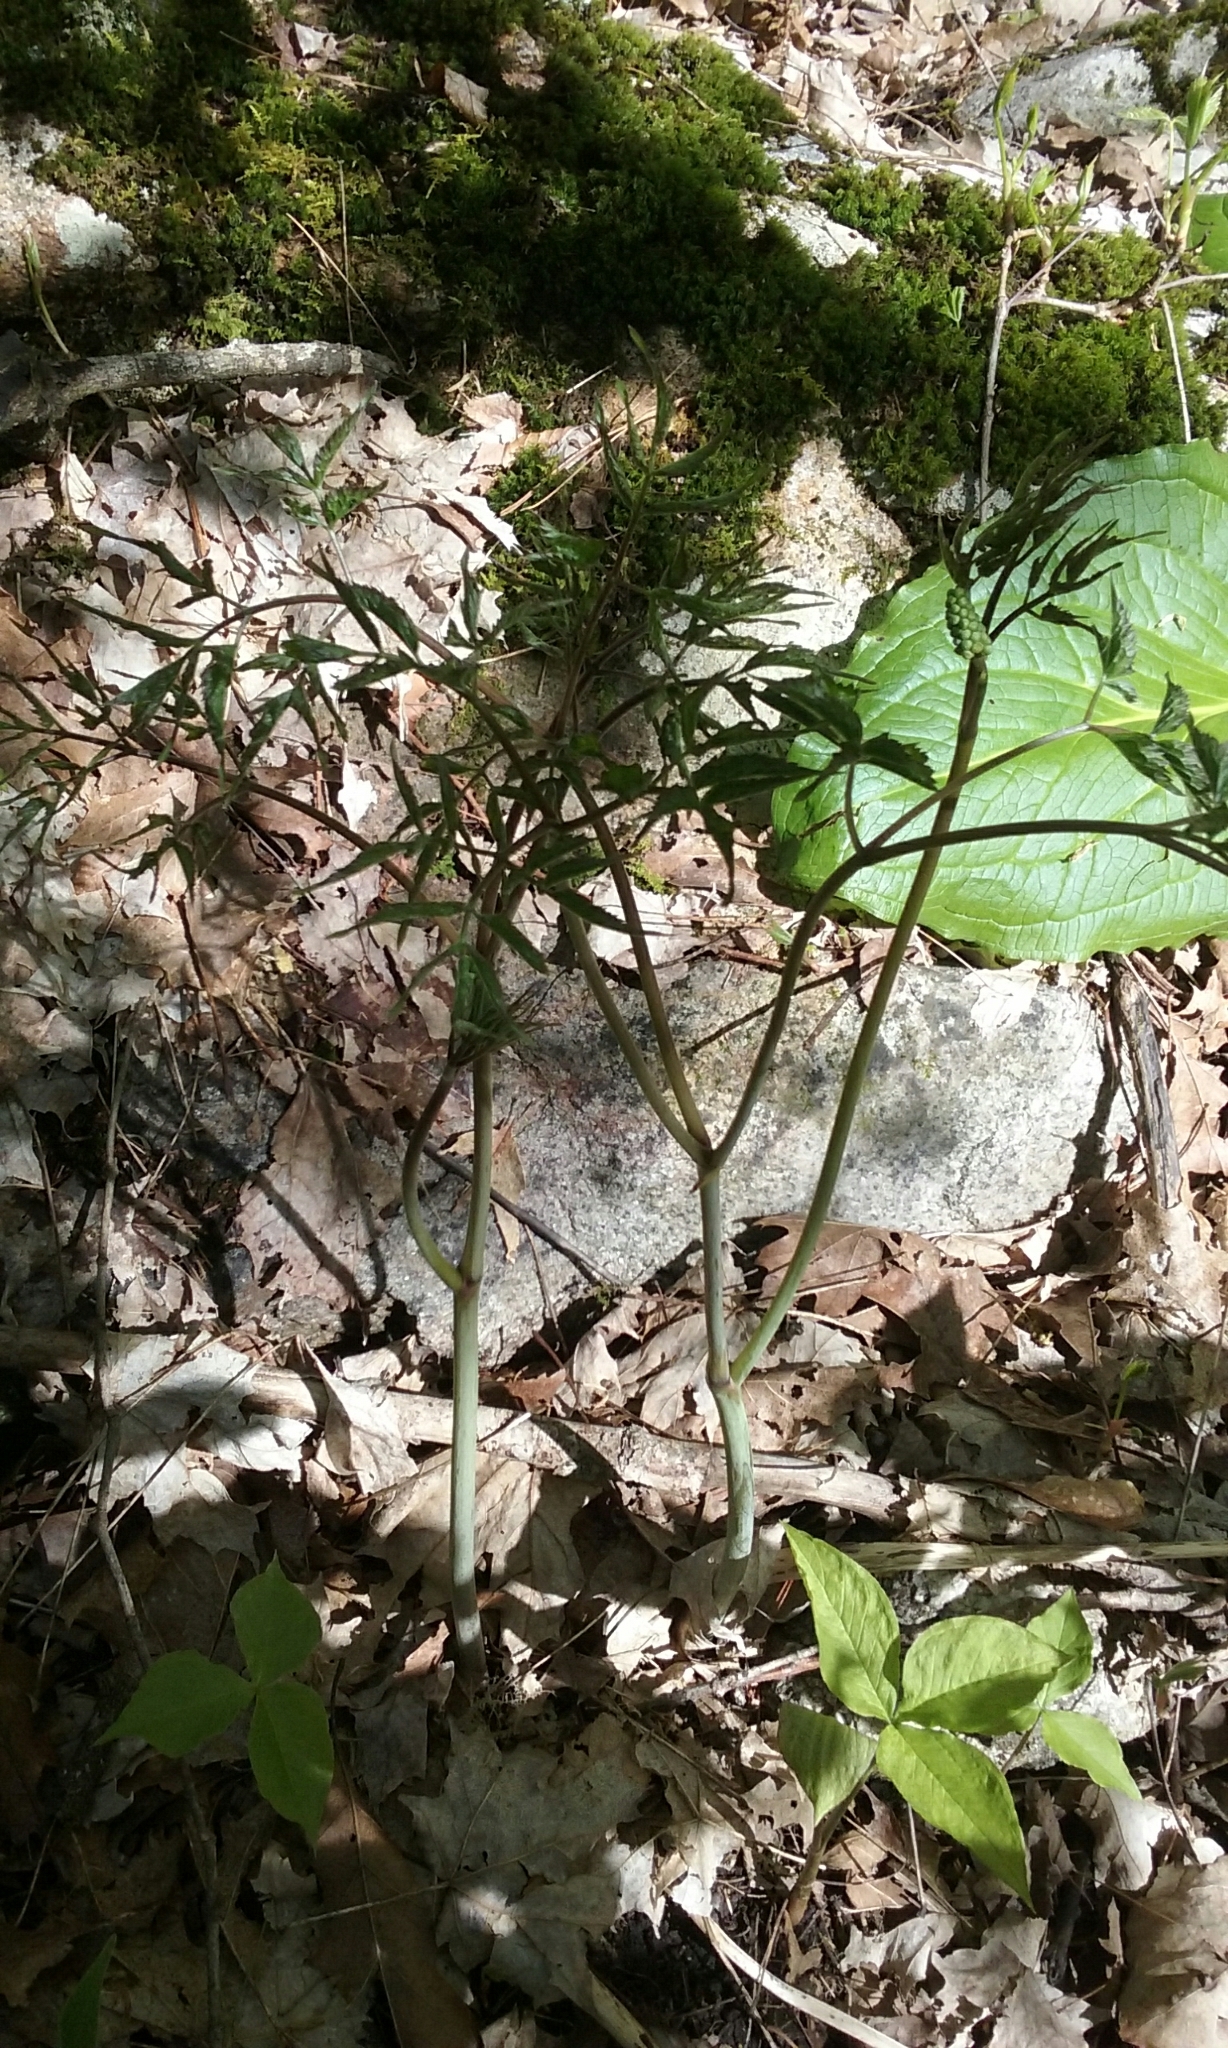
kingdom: Plantae
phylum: Tracheophyta
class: Magnoliopsida
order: Ranunculales
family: Ranunculaceae
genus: Actaea
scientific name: Actaea
